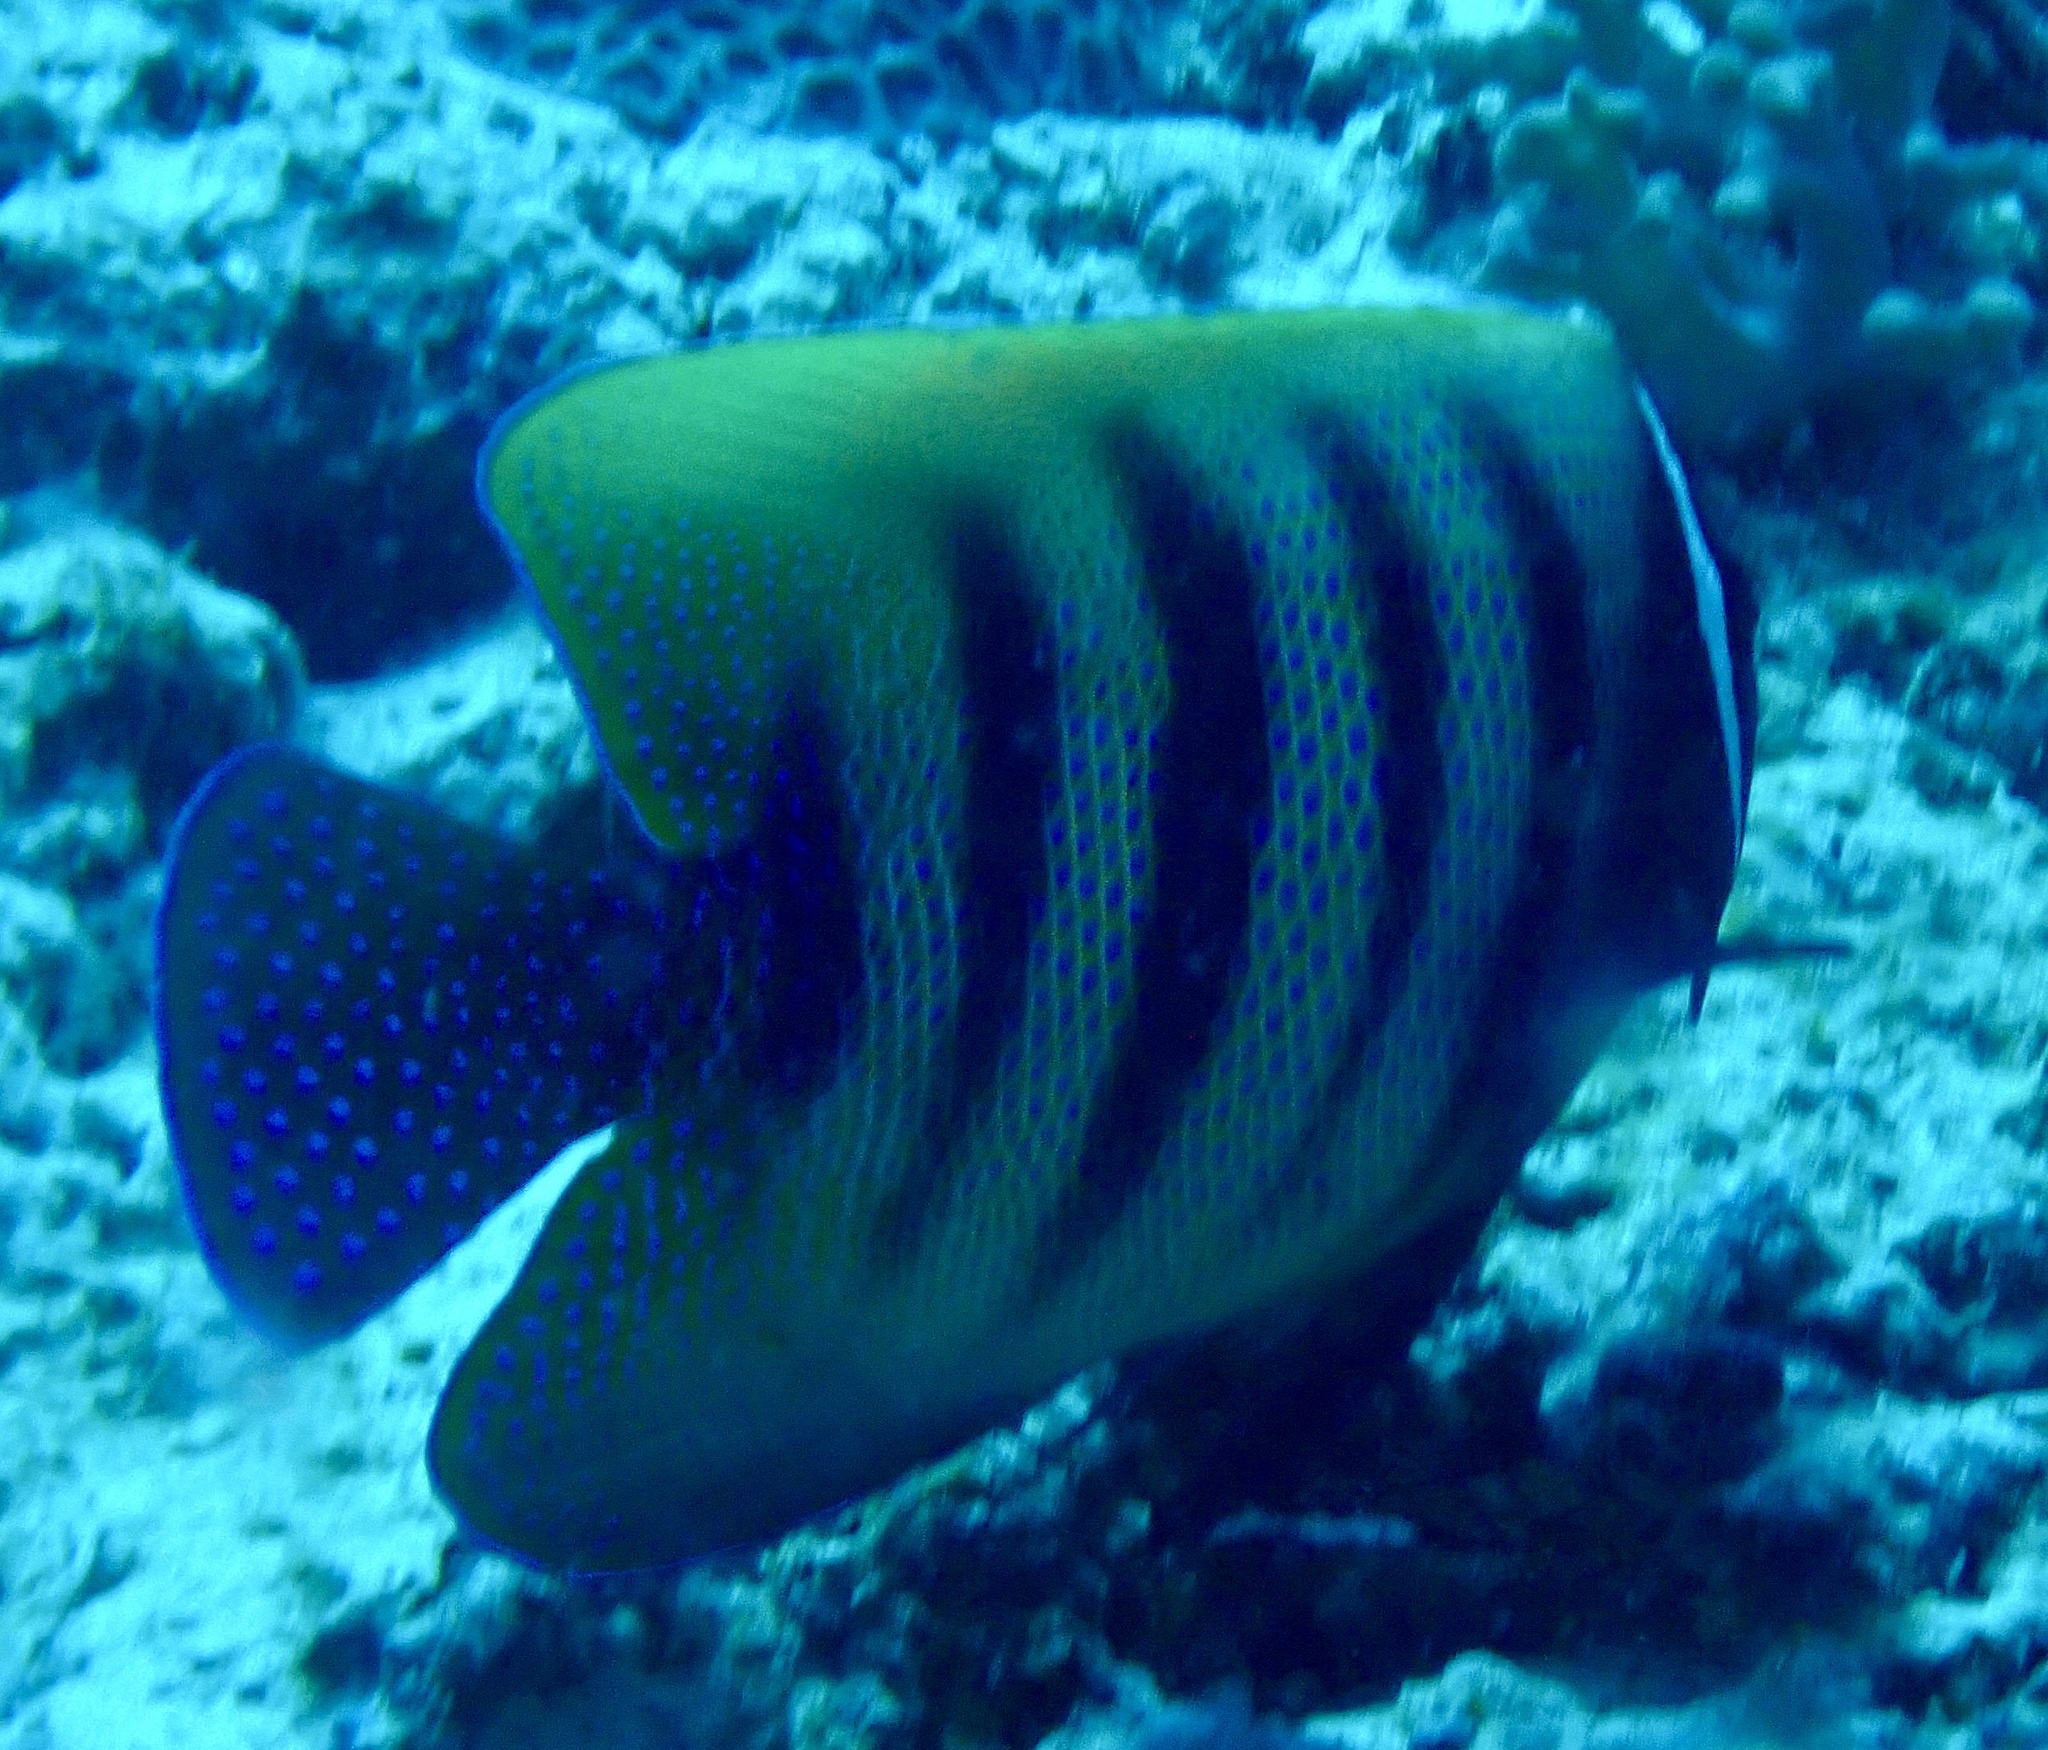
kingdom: Animalia
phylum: Chordata
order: Perciformes
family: Pomacanthidae
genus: Pomacanthus
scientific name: Pomacanthus sexstriatus
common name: Six-banded angelfish
